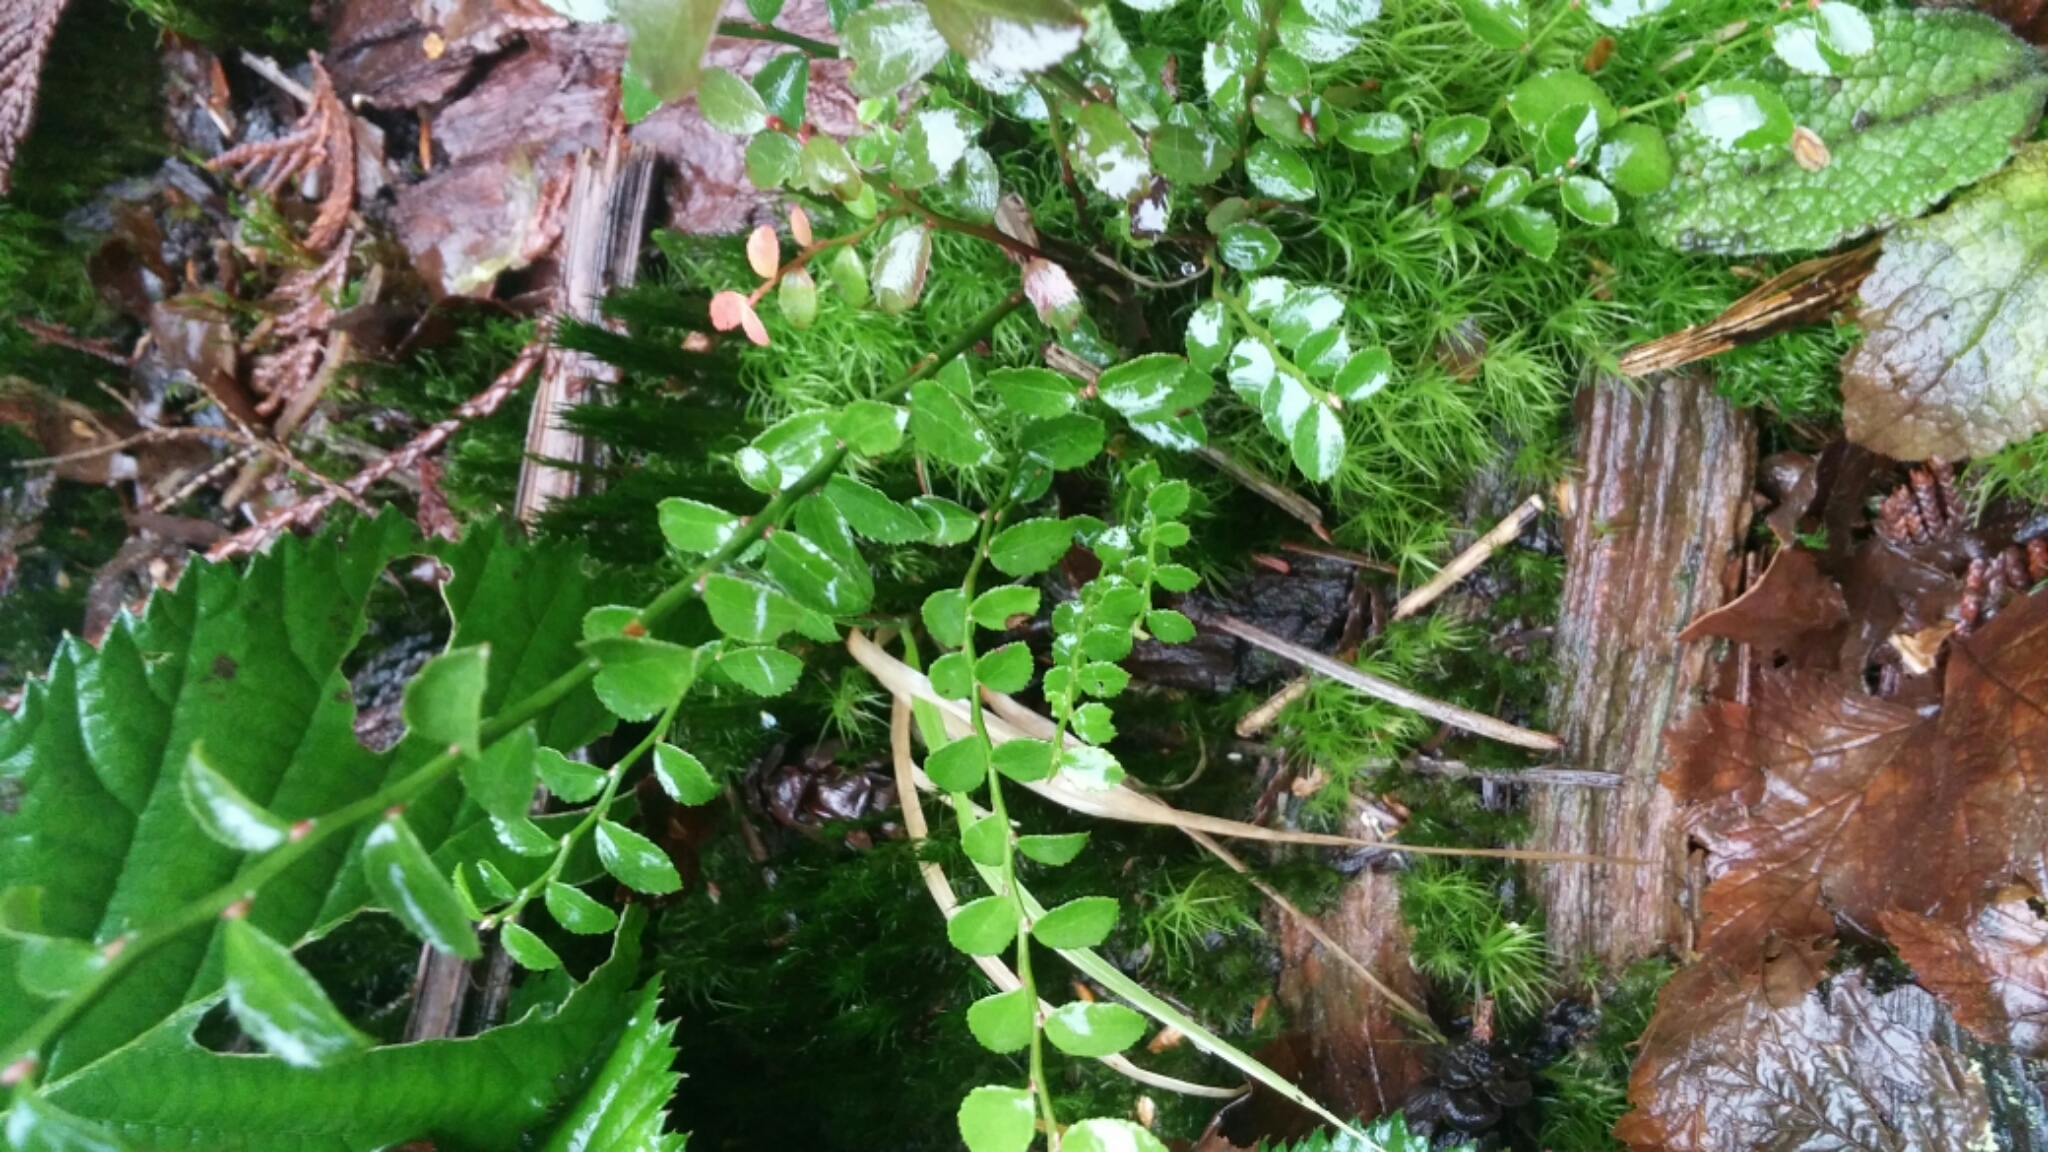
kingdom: Plantae
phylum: Tracheophyta
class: Magnoliopsida
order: Ericales
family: Ericaceae
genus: Vaccinium
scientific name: Vaccinium parvifolium
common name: Red-huckleberry
